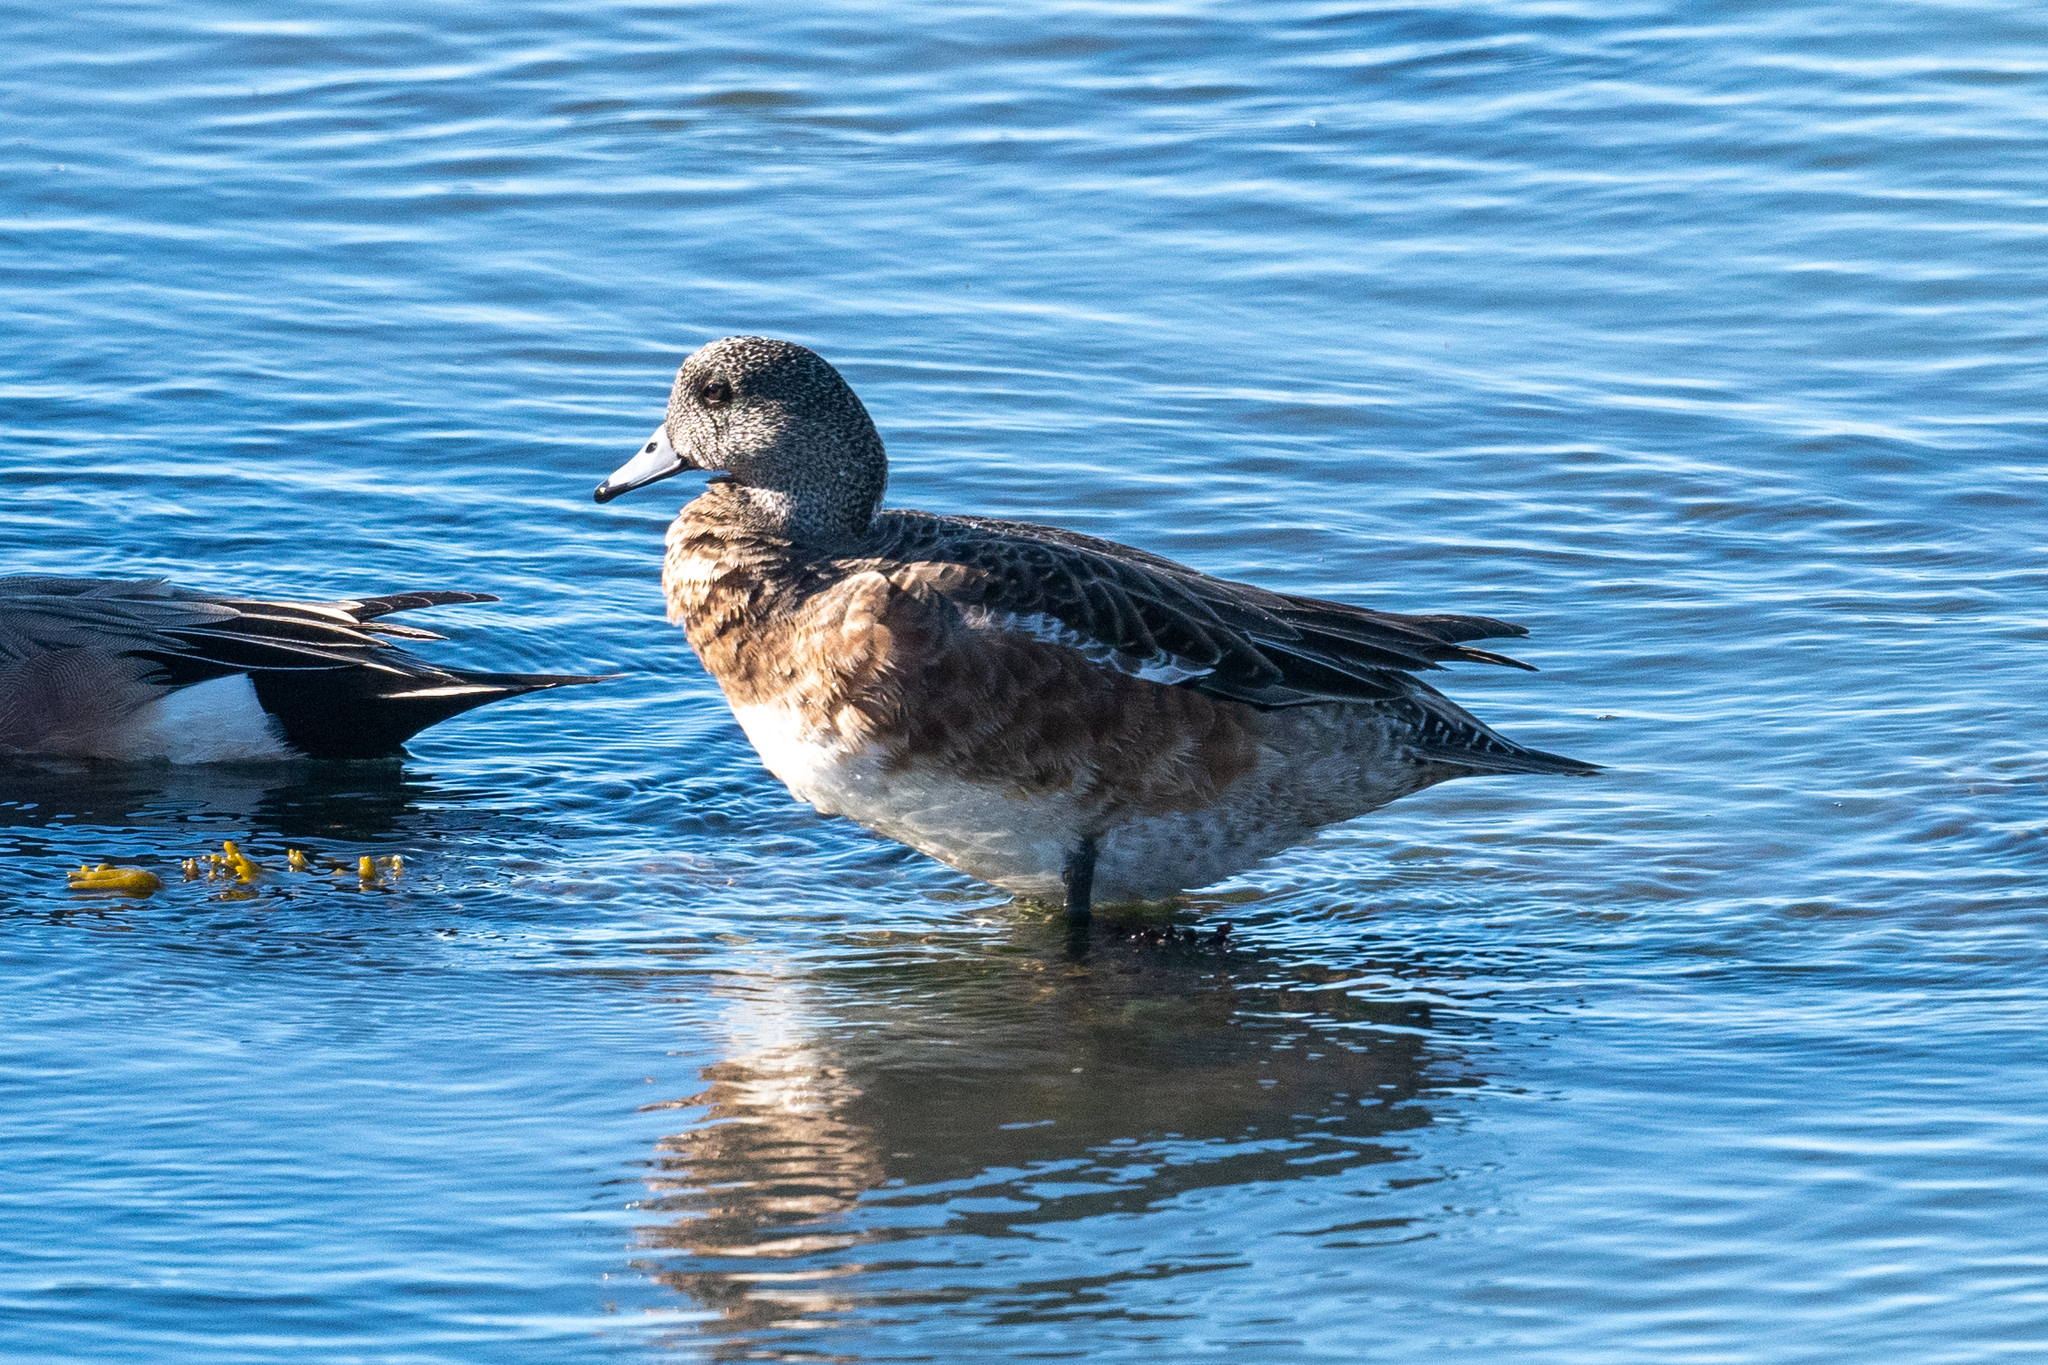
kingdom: Animalia
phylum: Chordata
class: Aves
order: Anseriformes
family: Anatidae
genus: Mareca
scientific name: Mareca americana
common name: American wigeon
